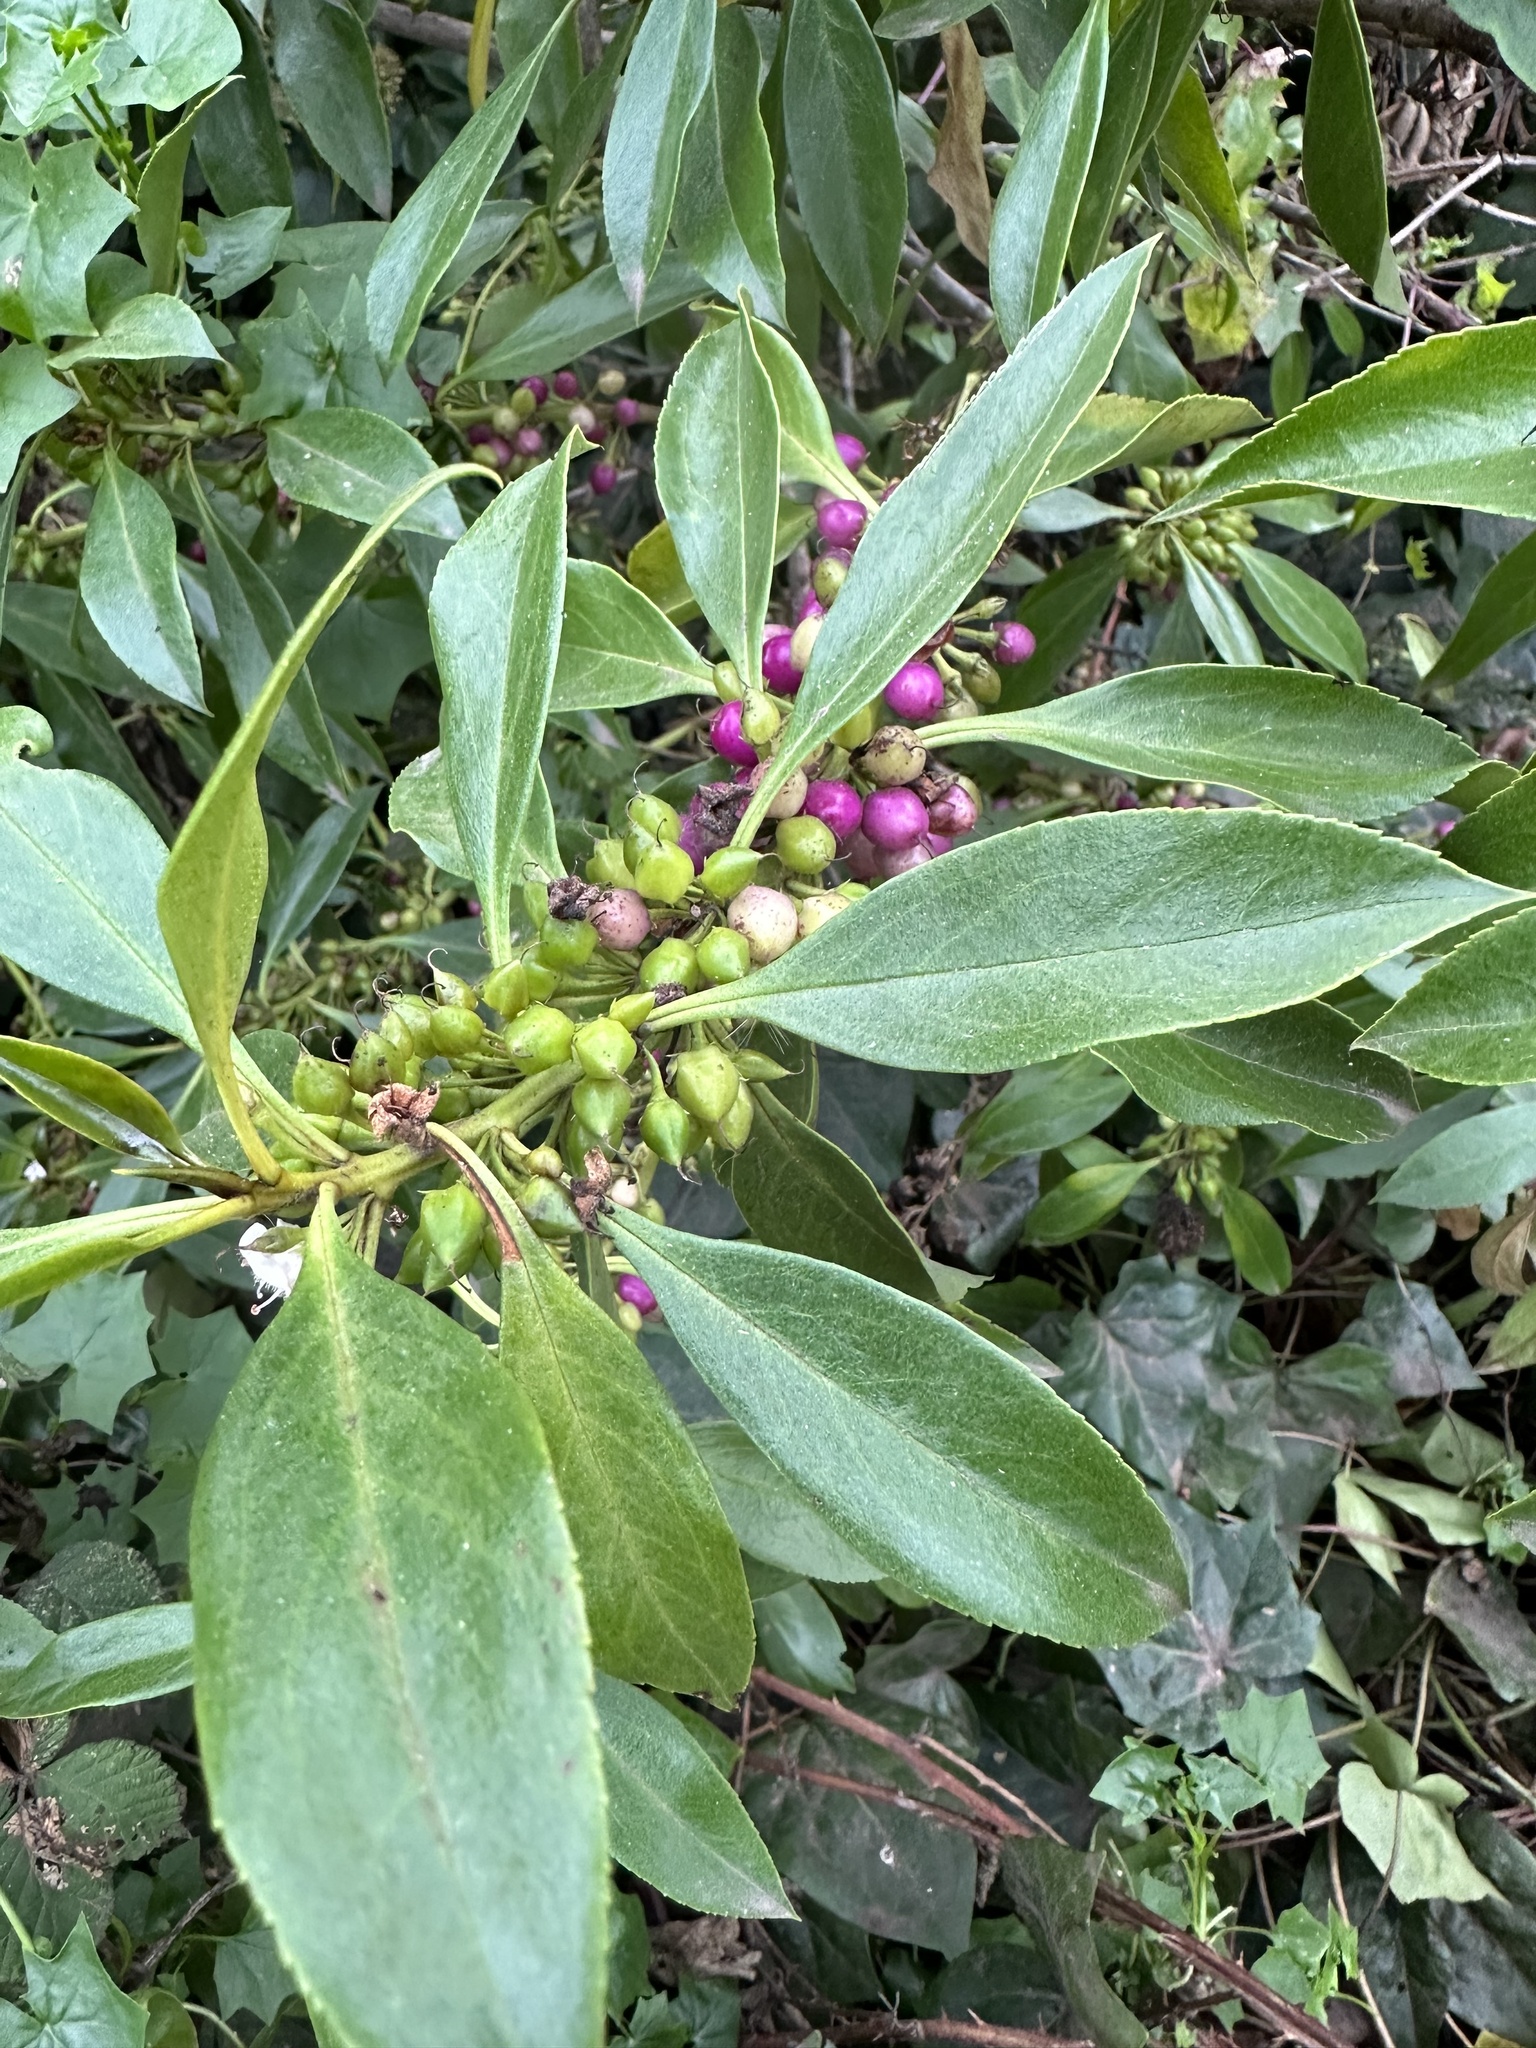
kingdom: Plantae
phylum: Tracheophyta
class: Magnoliopsida
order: Lamiales
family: Scrophulariaceae
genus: Myoporum
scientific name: Myoporum laetum
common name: Ngaio tree
